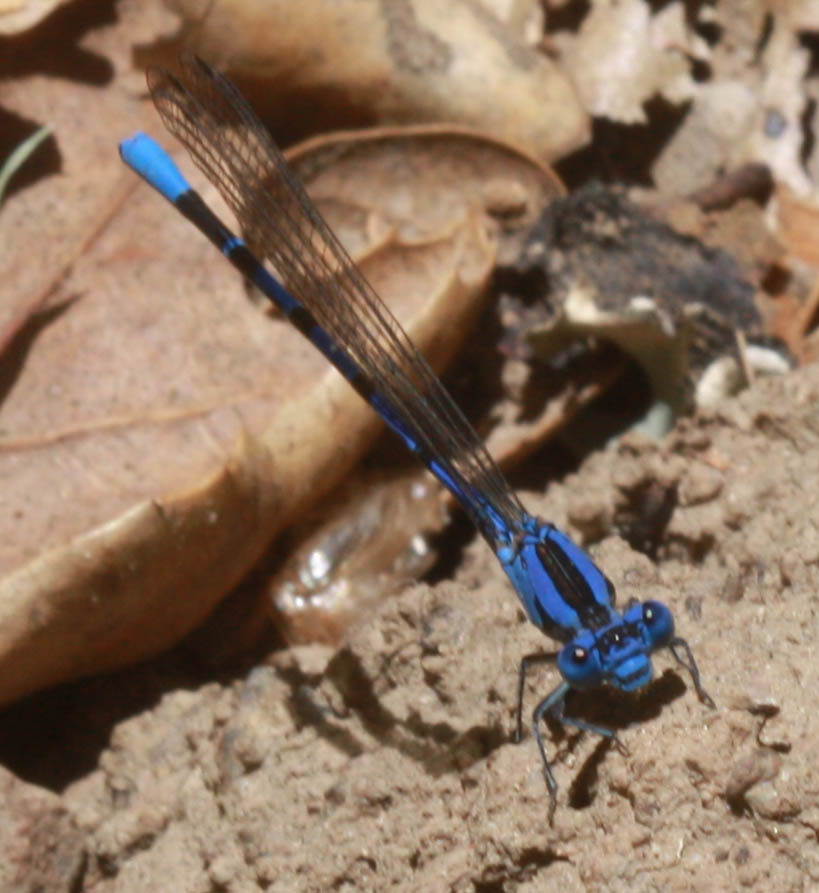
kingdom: Animalia
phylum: Arthropoda
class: Insecta
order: Odonata
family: Coenagrionidae
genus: Argia
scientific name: Argia vivida
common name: Vivid dancer
